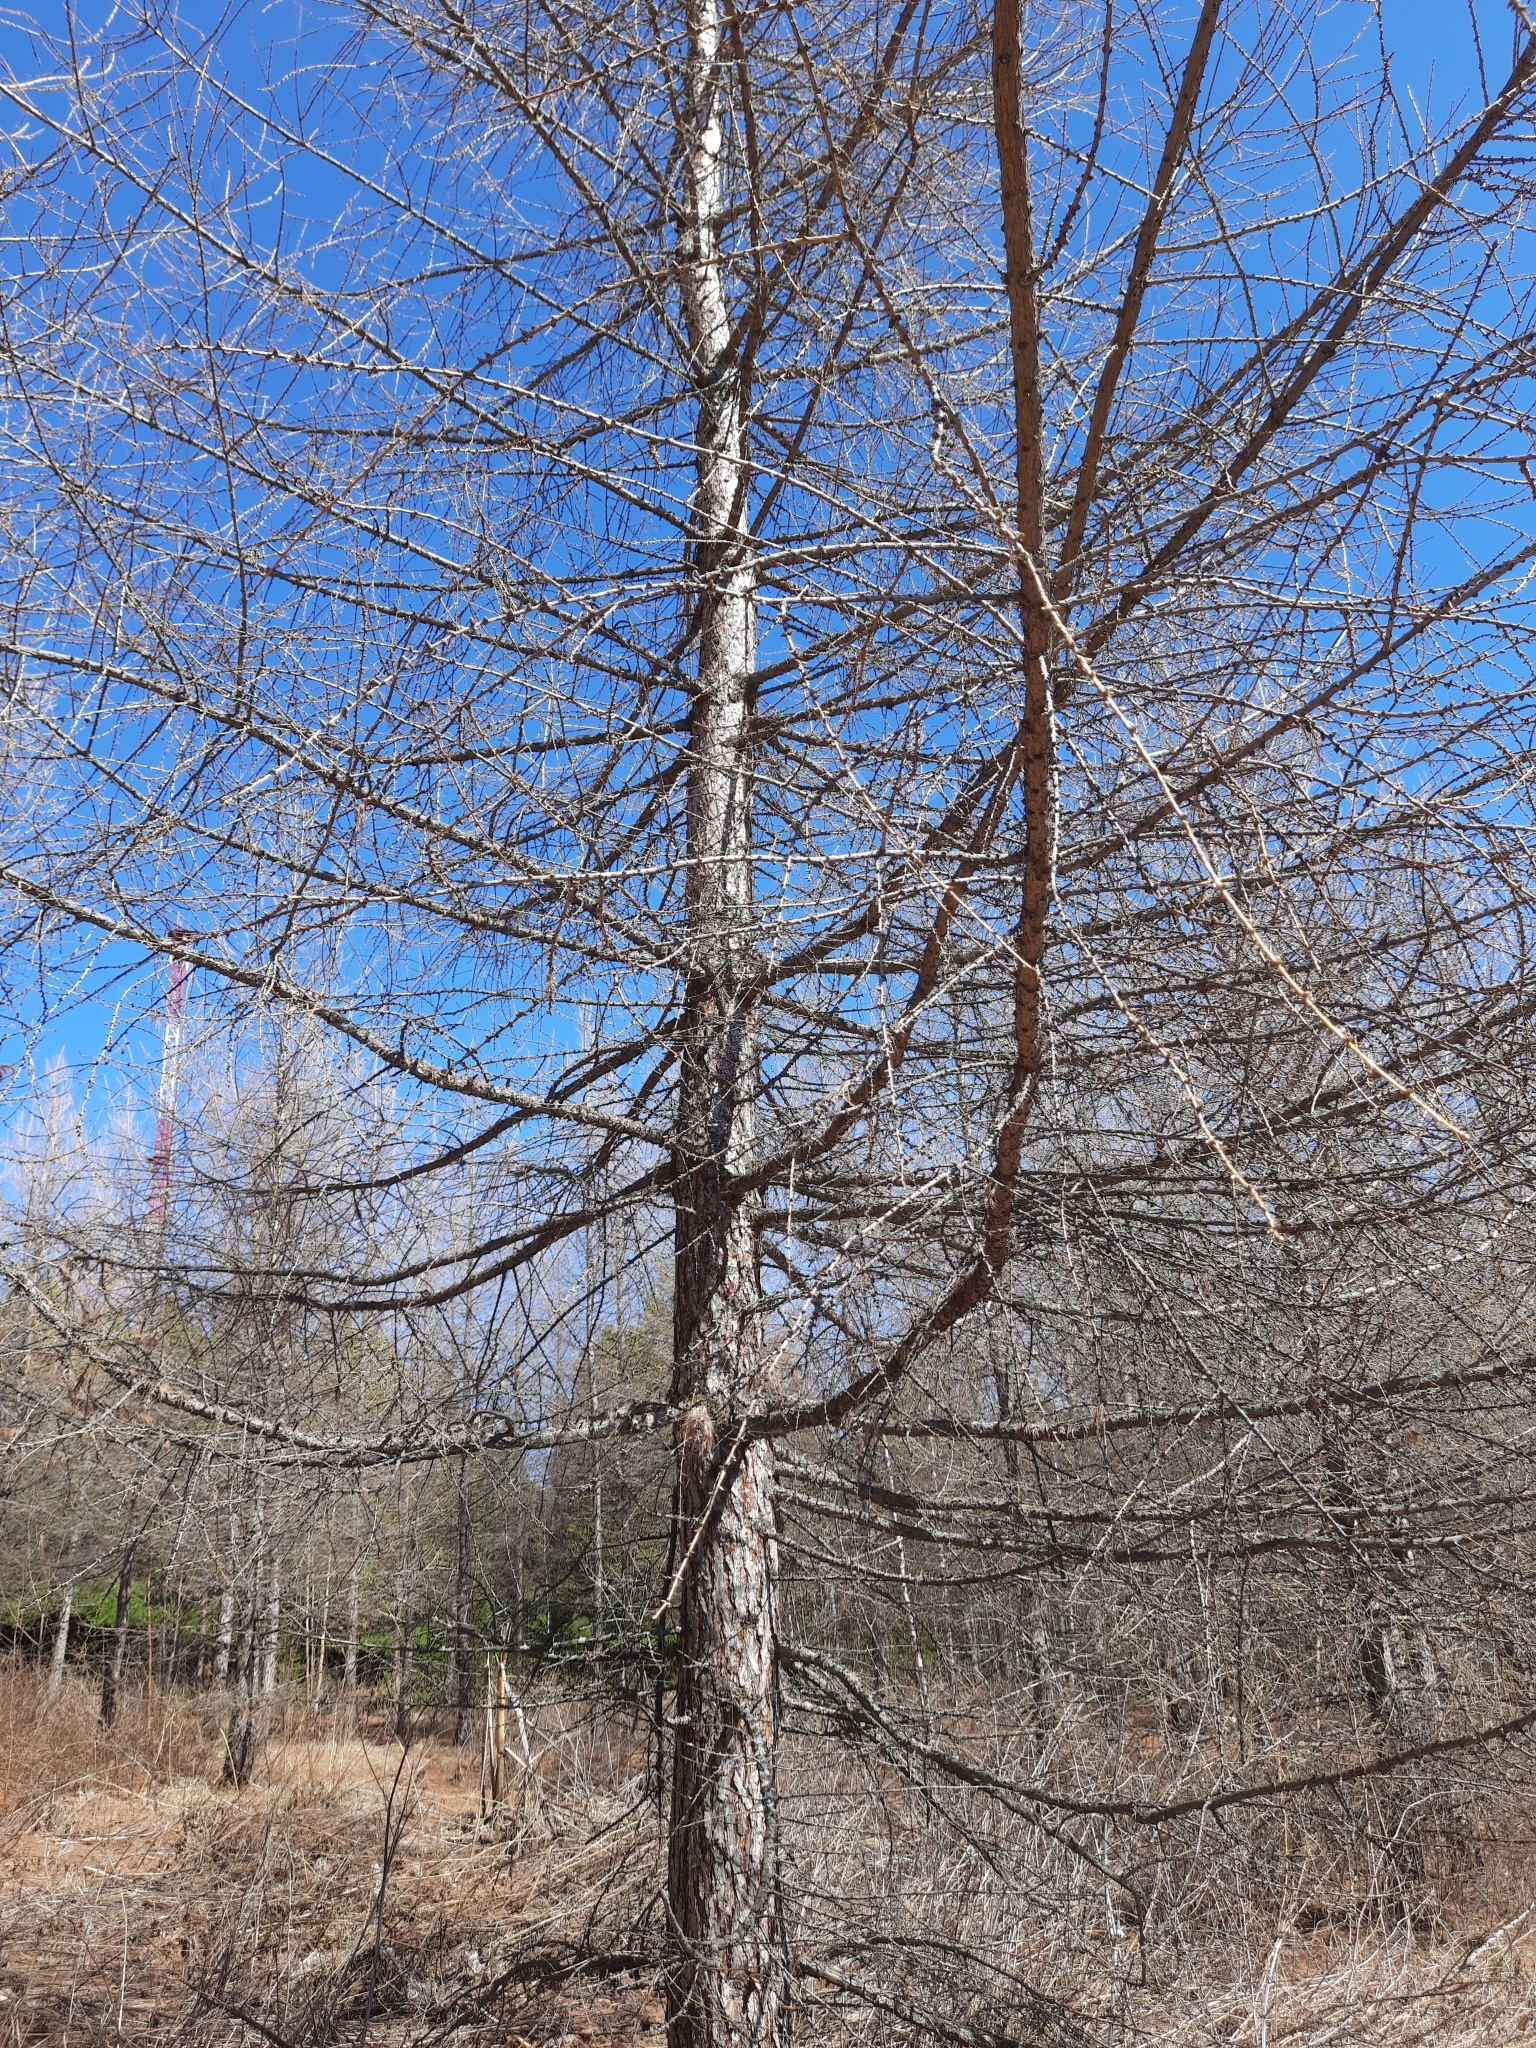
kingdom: Plantae
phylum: Tracheophyta
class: Pinopsida
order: Pinales
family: Pinaceae
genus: Larix
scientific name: Larix sibirica
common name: Siberian larch
